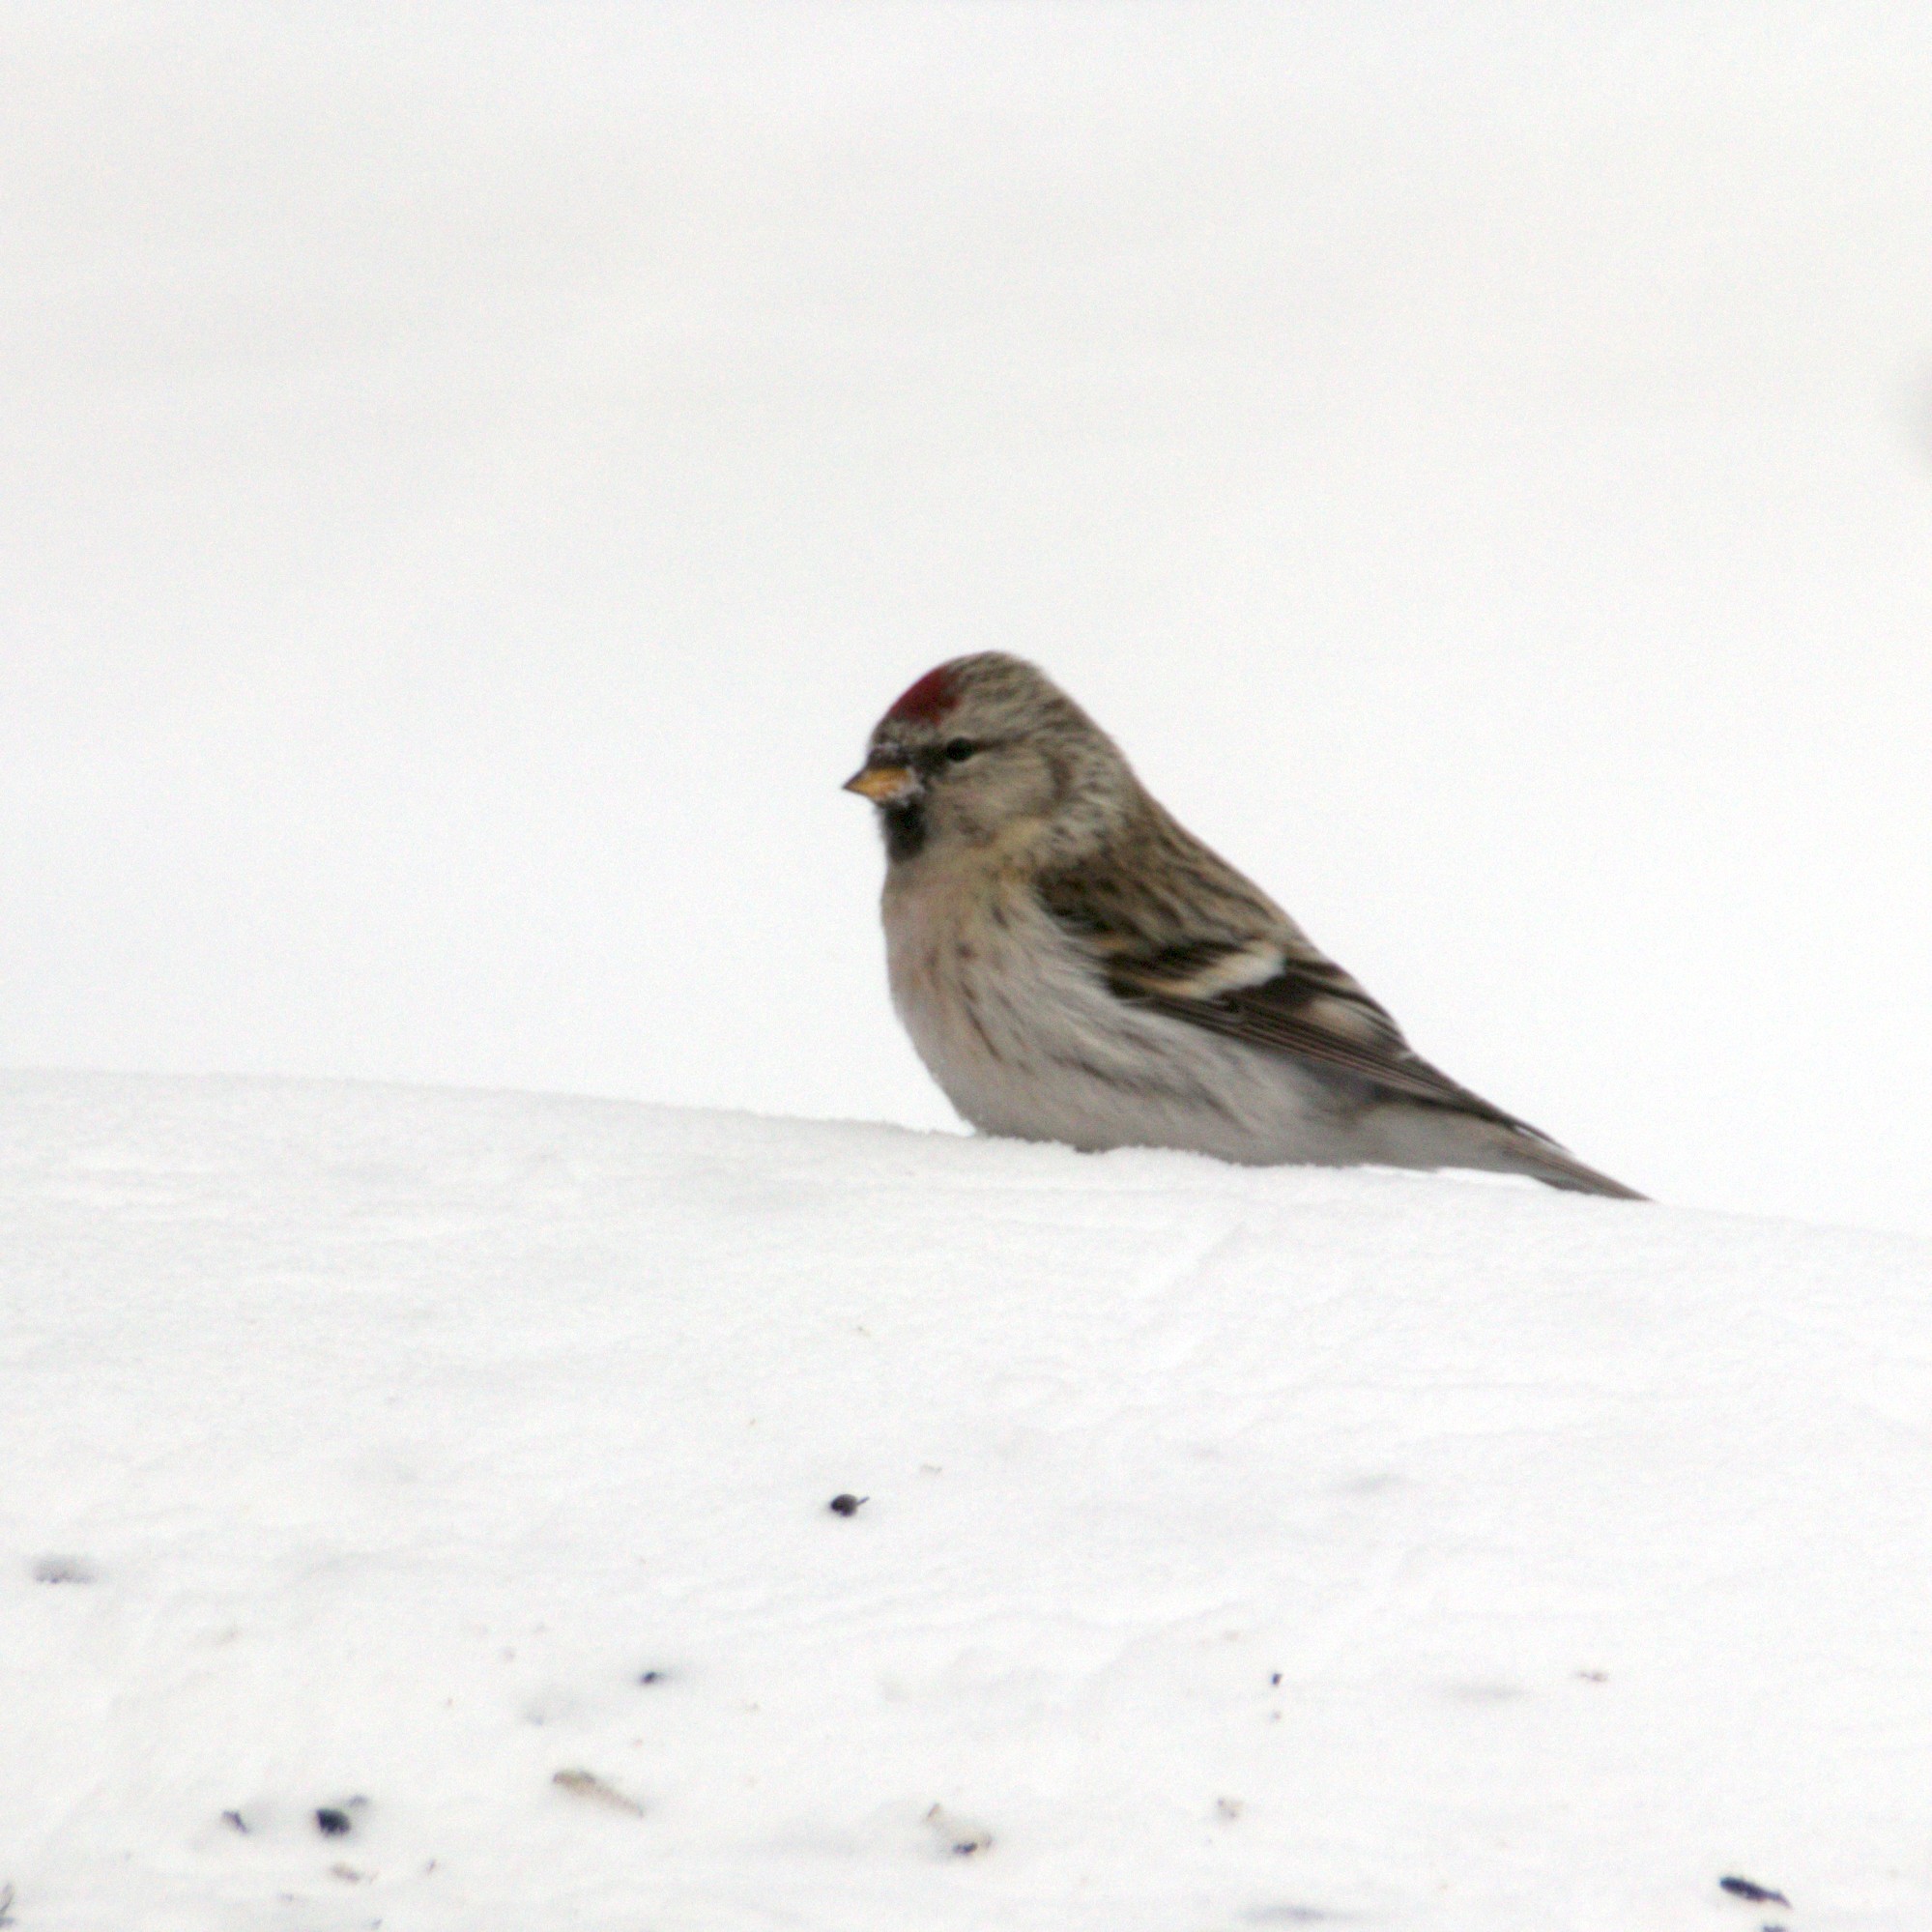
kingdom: Animalia
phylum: Chordata
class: Aves
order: Passeriformes
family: Fringillidae
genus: Acanthis
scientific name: Acanthis flammea
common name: Common redpoll
